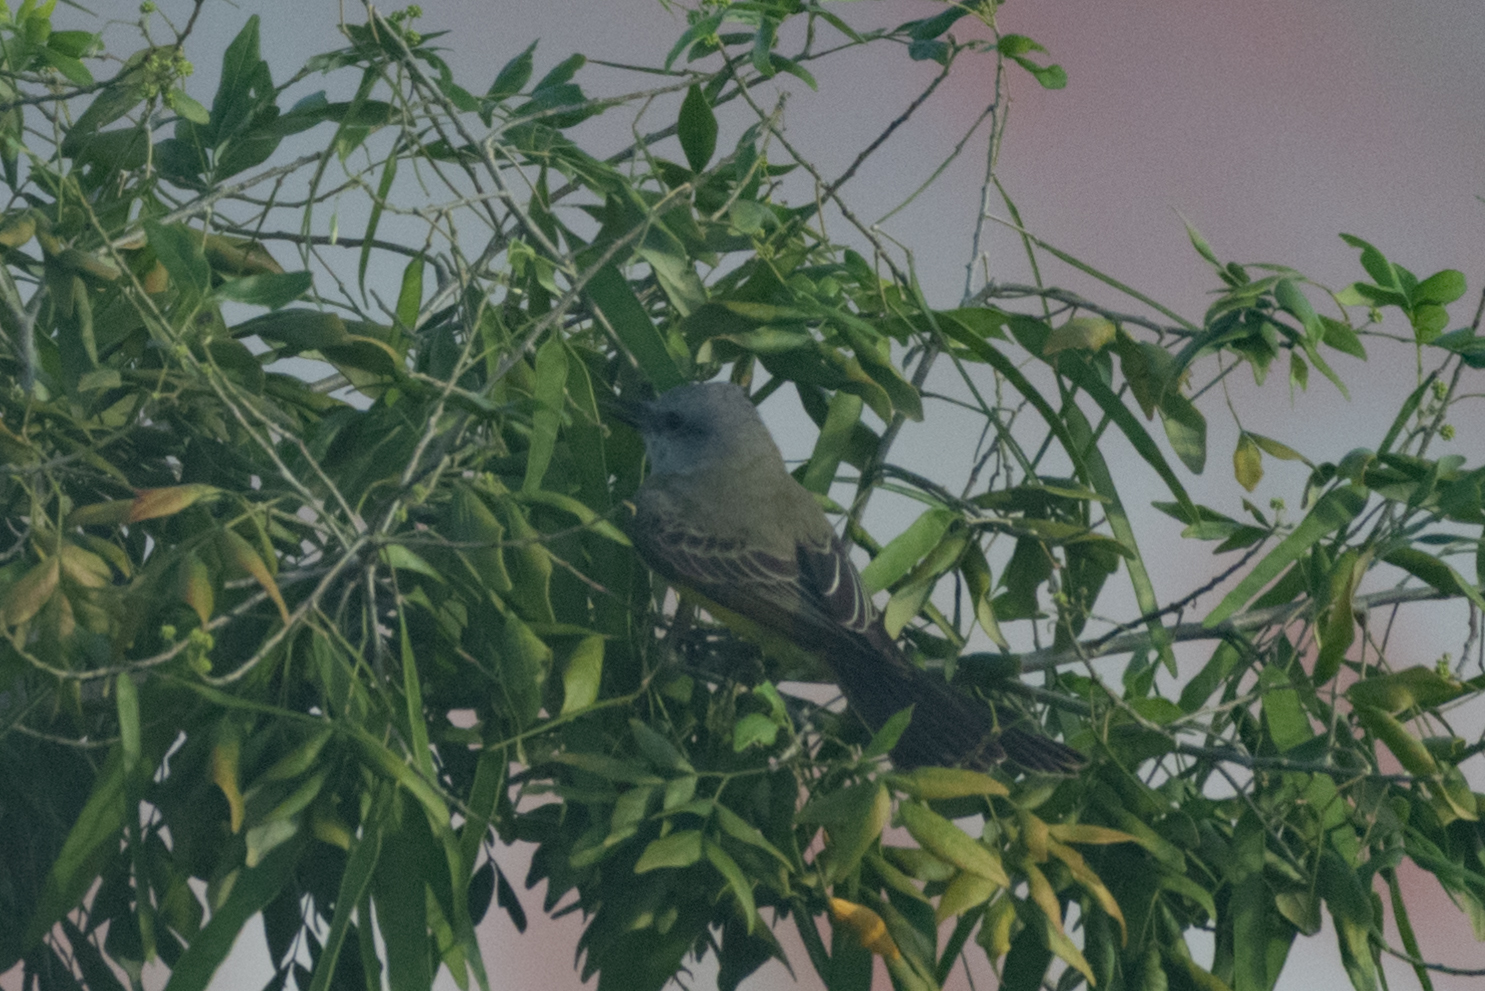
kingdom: Animalia
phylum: Chordata
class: Aves
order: Passeriformes
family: Tyrannidae
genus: Tyrannus
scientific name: Tyrannus melancholicus
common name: Tropical kingbird
